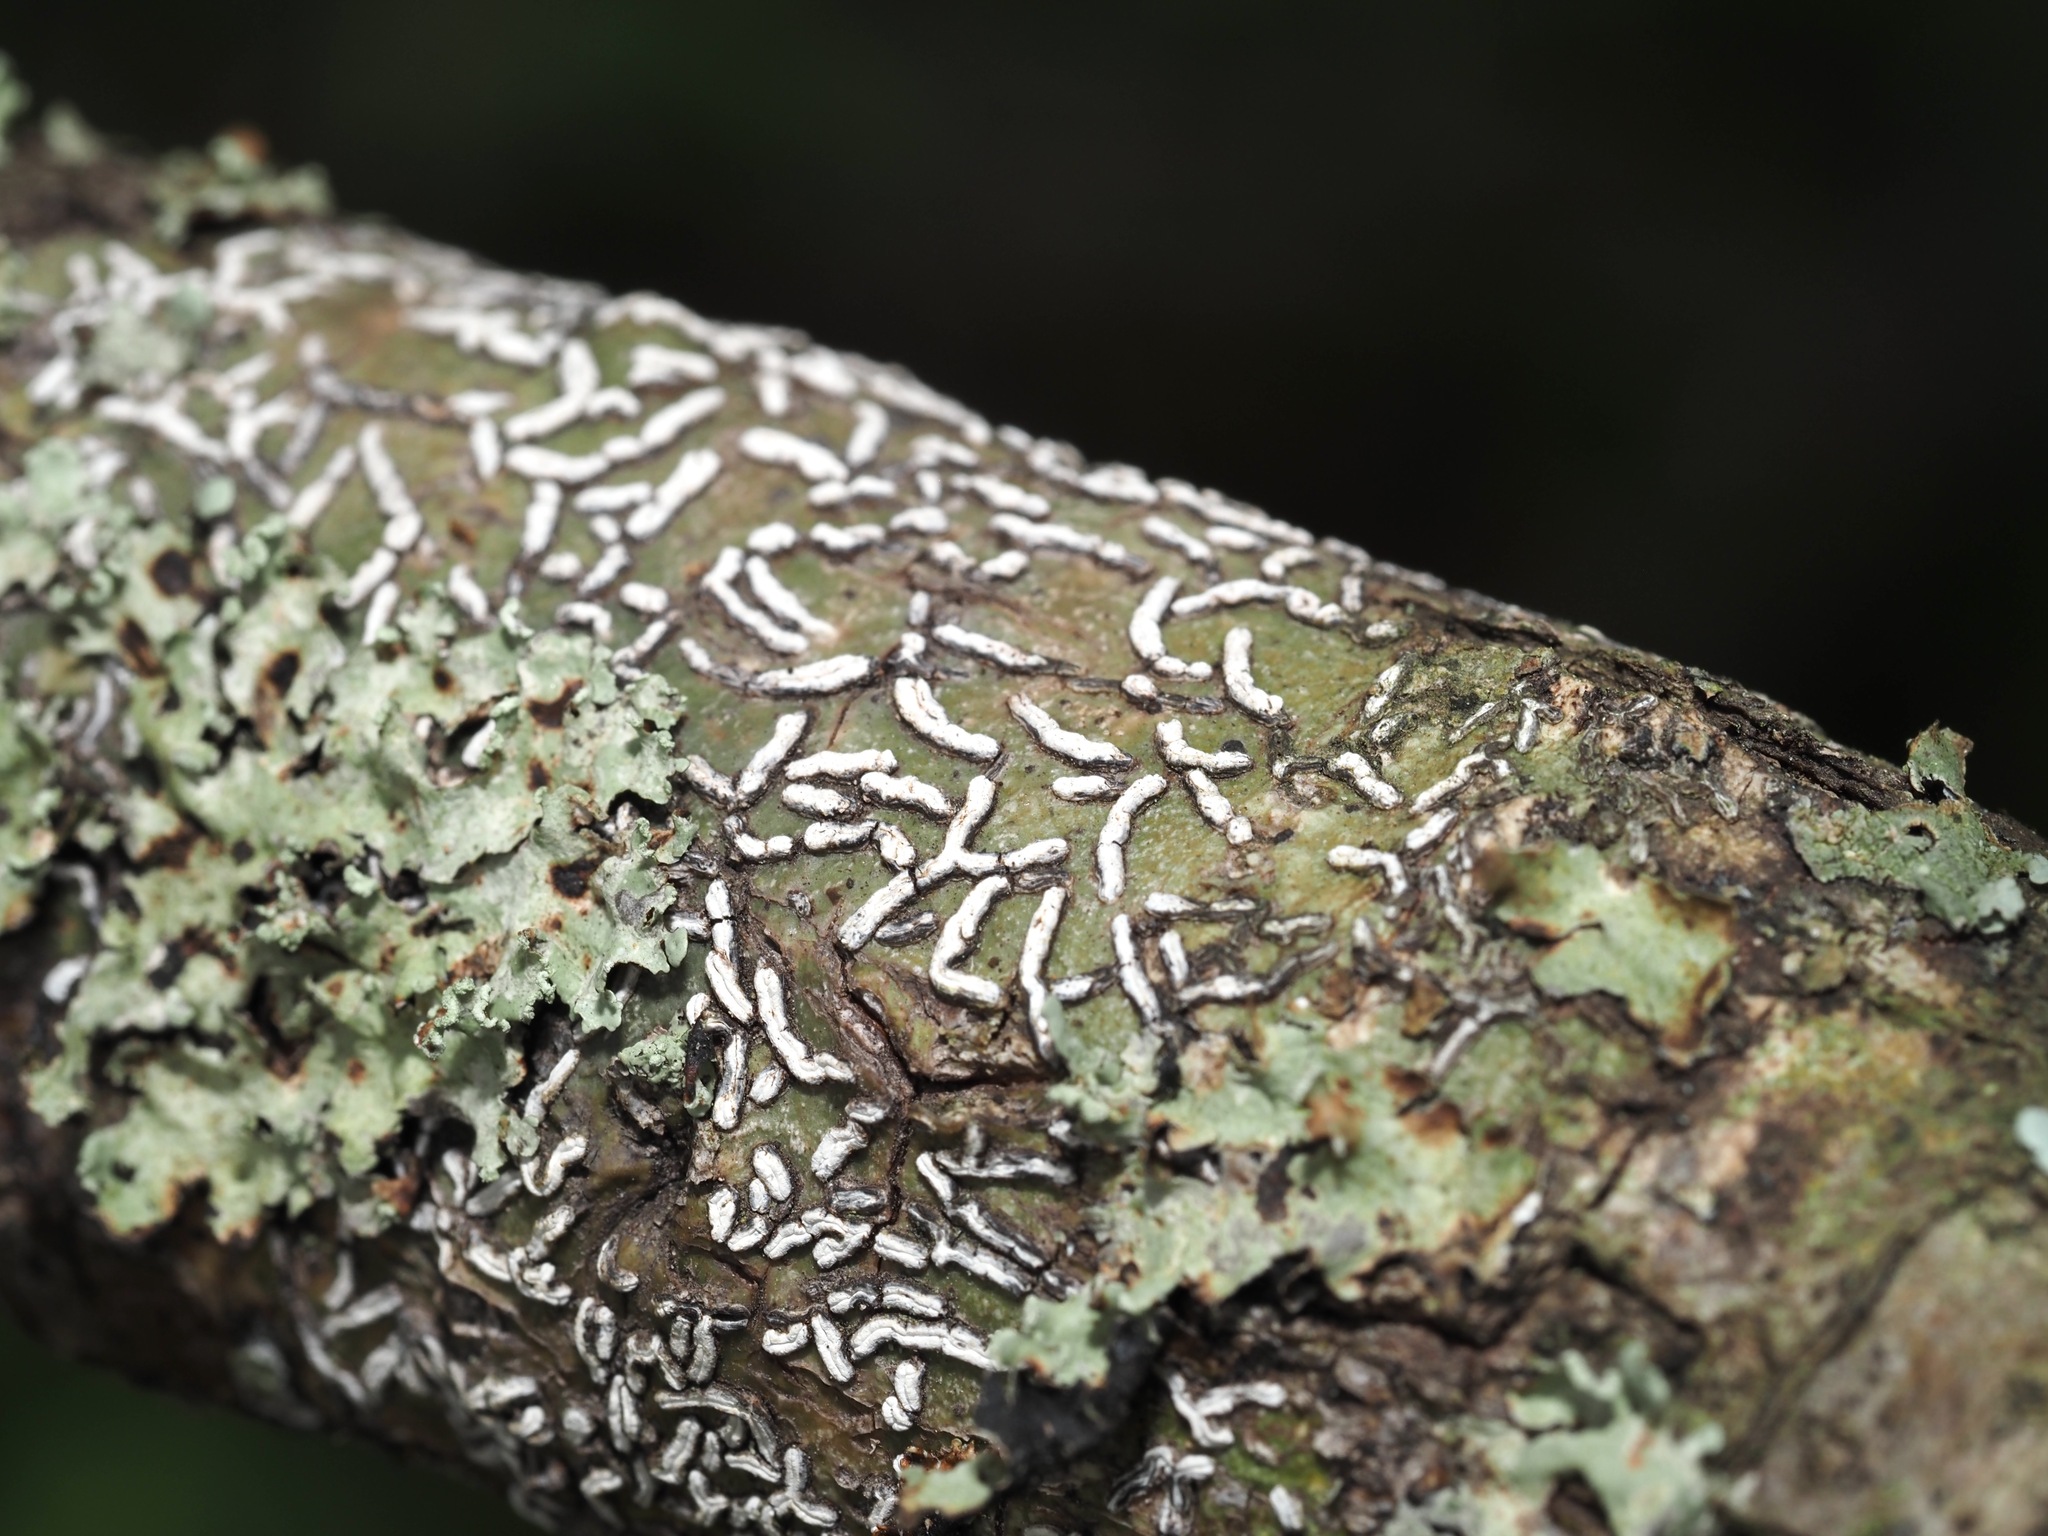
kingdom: Fungi
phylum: Ascomycota
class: Lecanoromycetes
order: Ostropales
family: Graphidaceae
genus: Dyplolabia
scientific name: Dyplolabia afzelii
